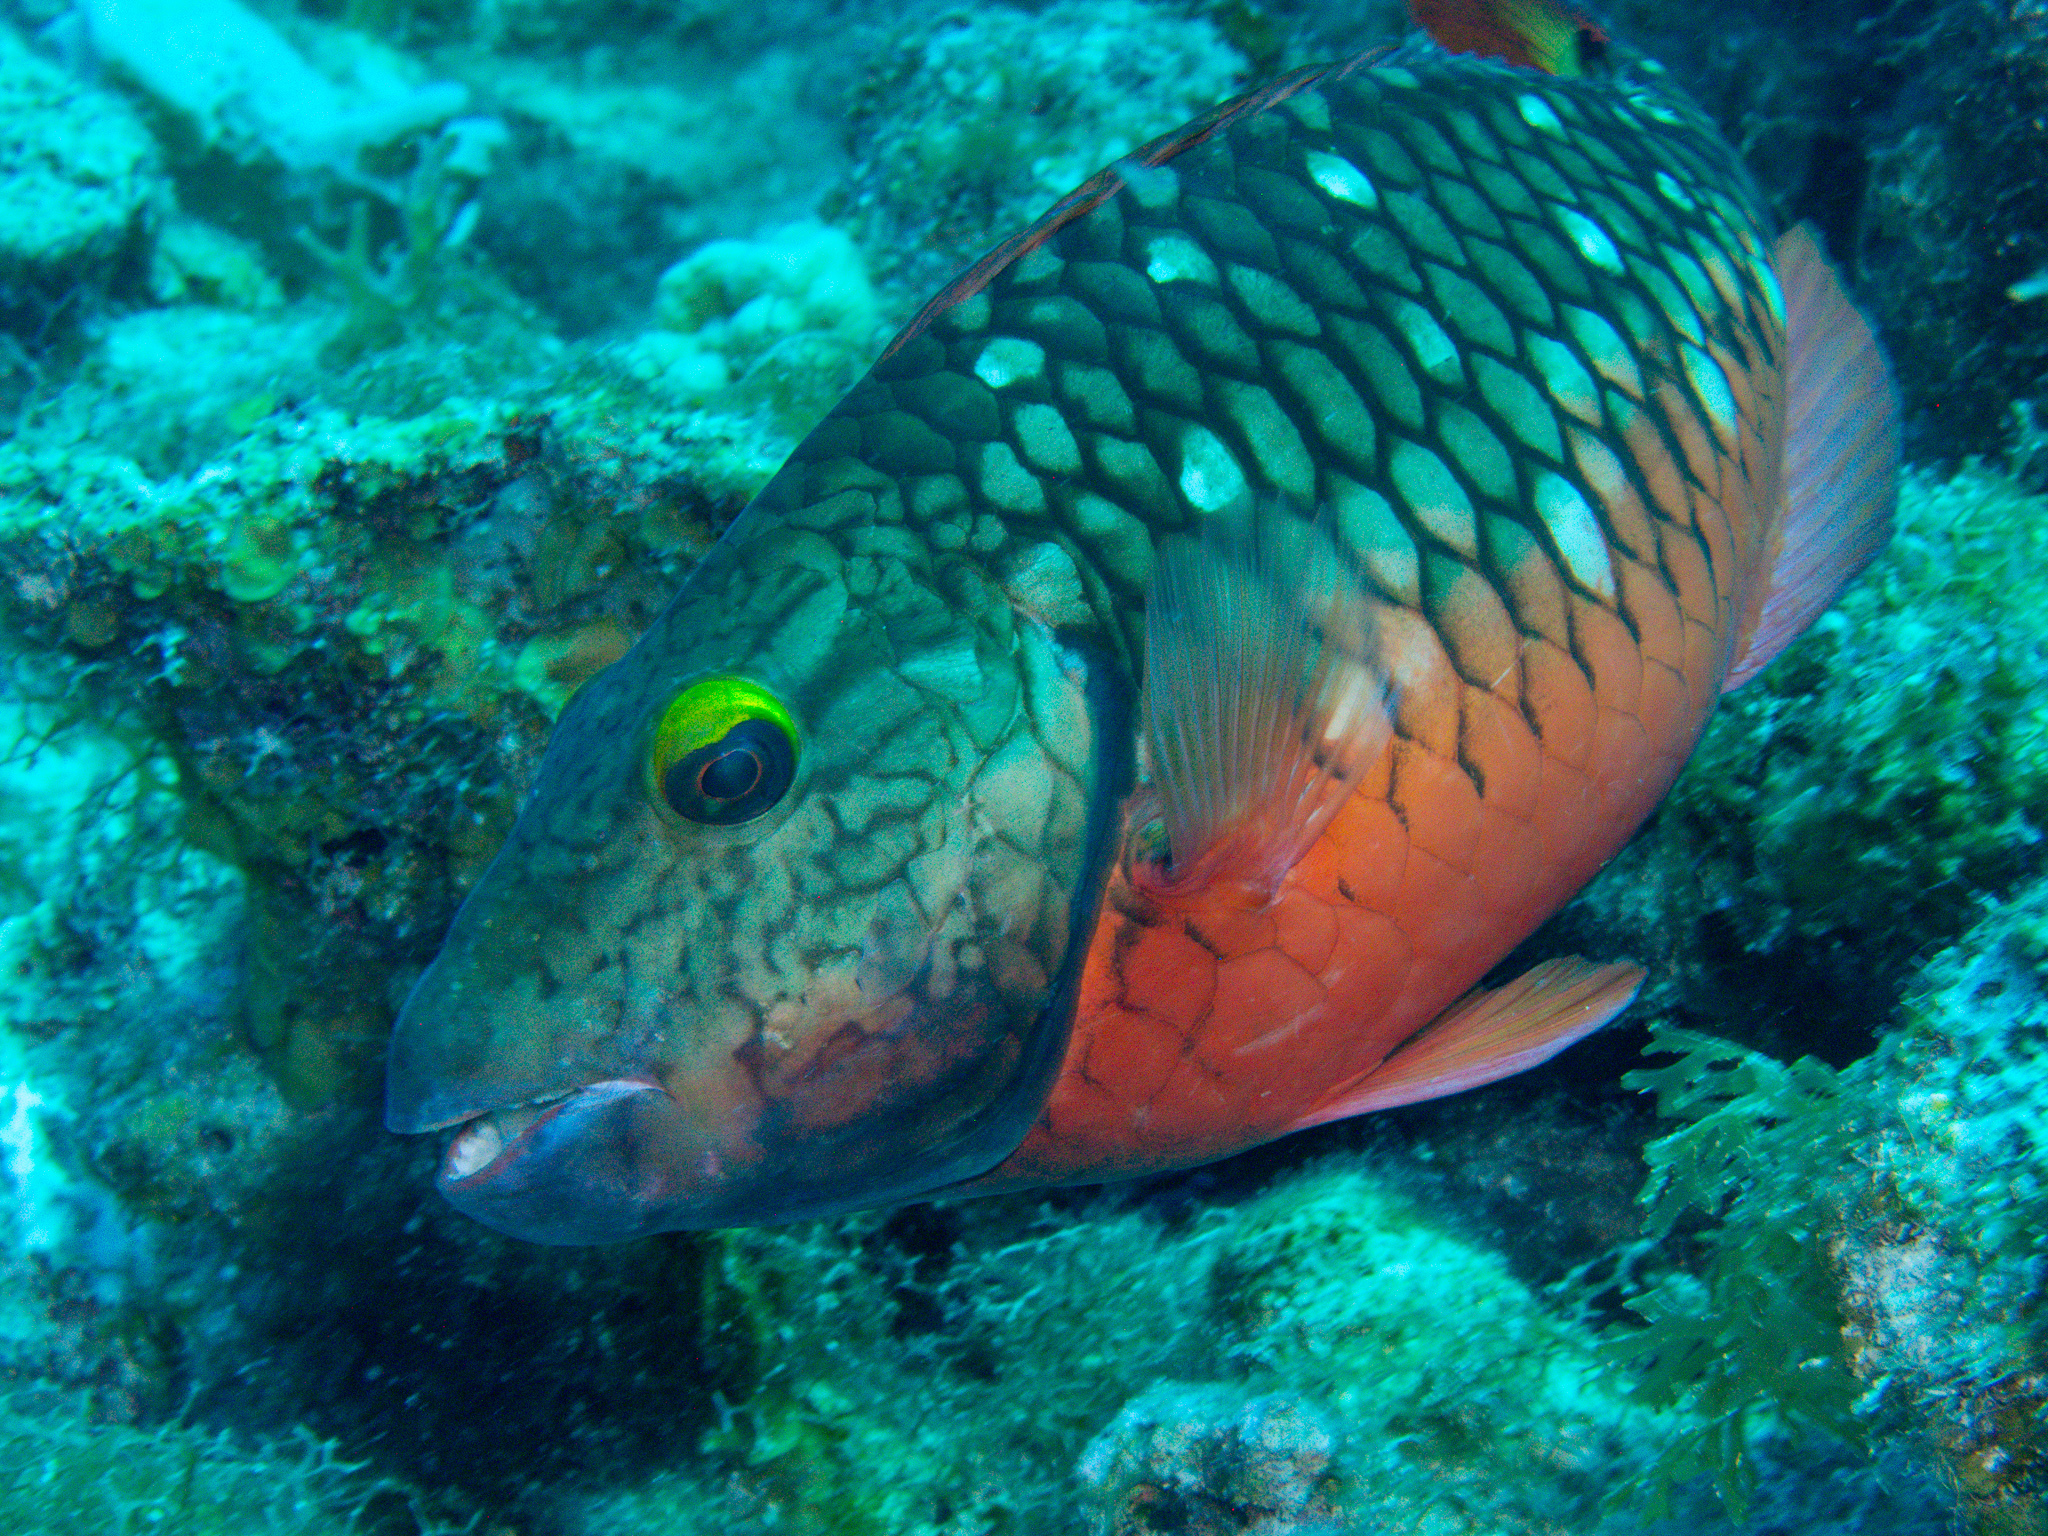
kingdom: Animalia
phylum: Chordata
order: Perciformes
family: Scaridae
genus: Sparisoma
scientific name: Sparisoma viride
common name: Stoplight parrotfish
